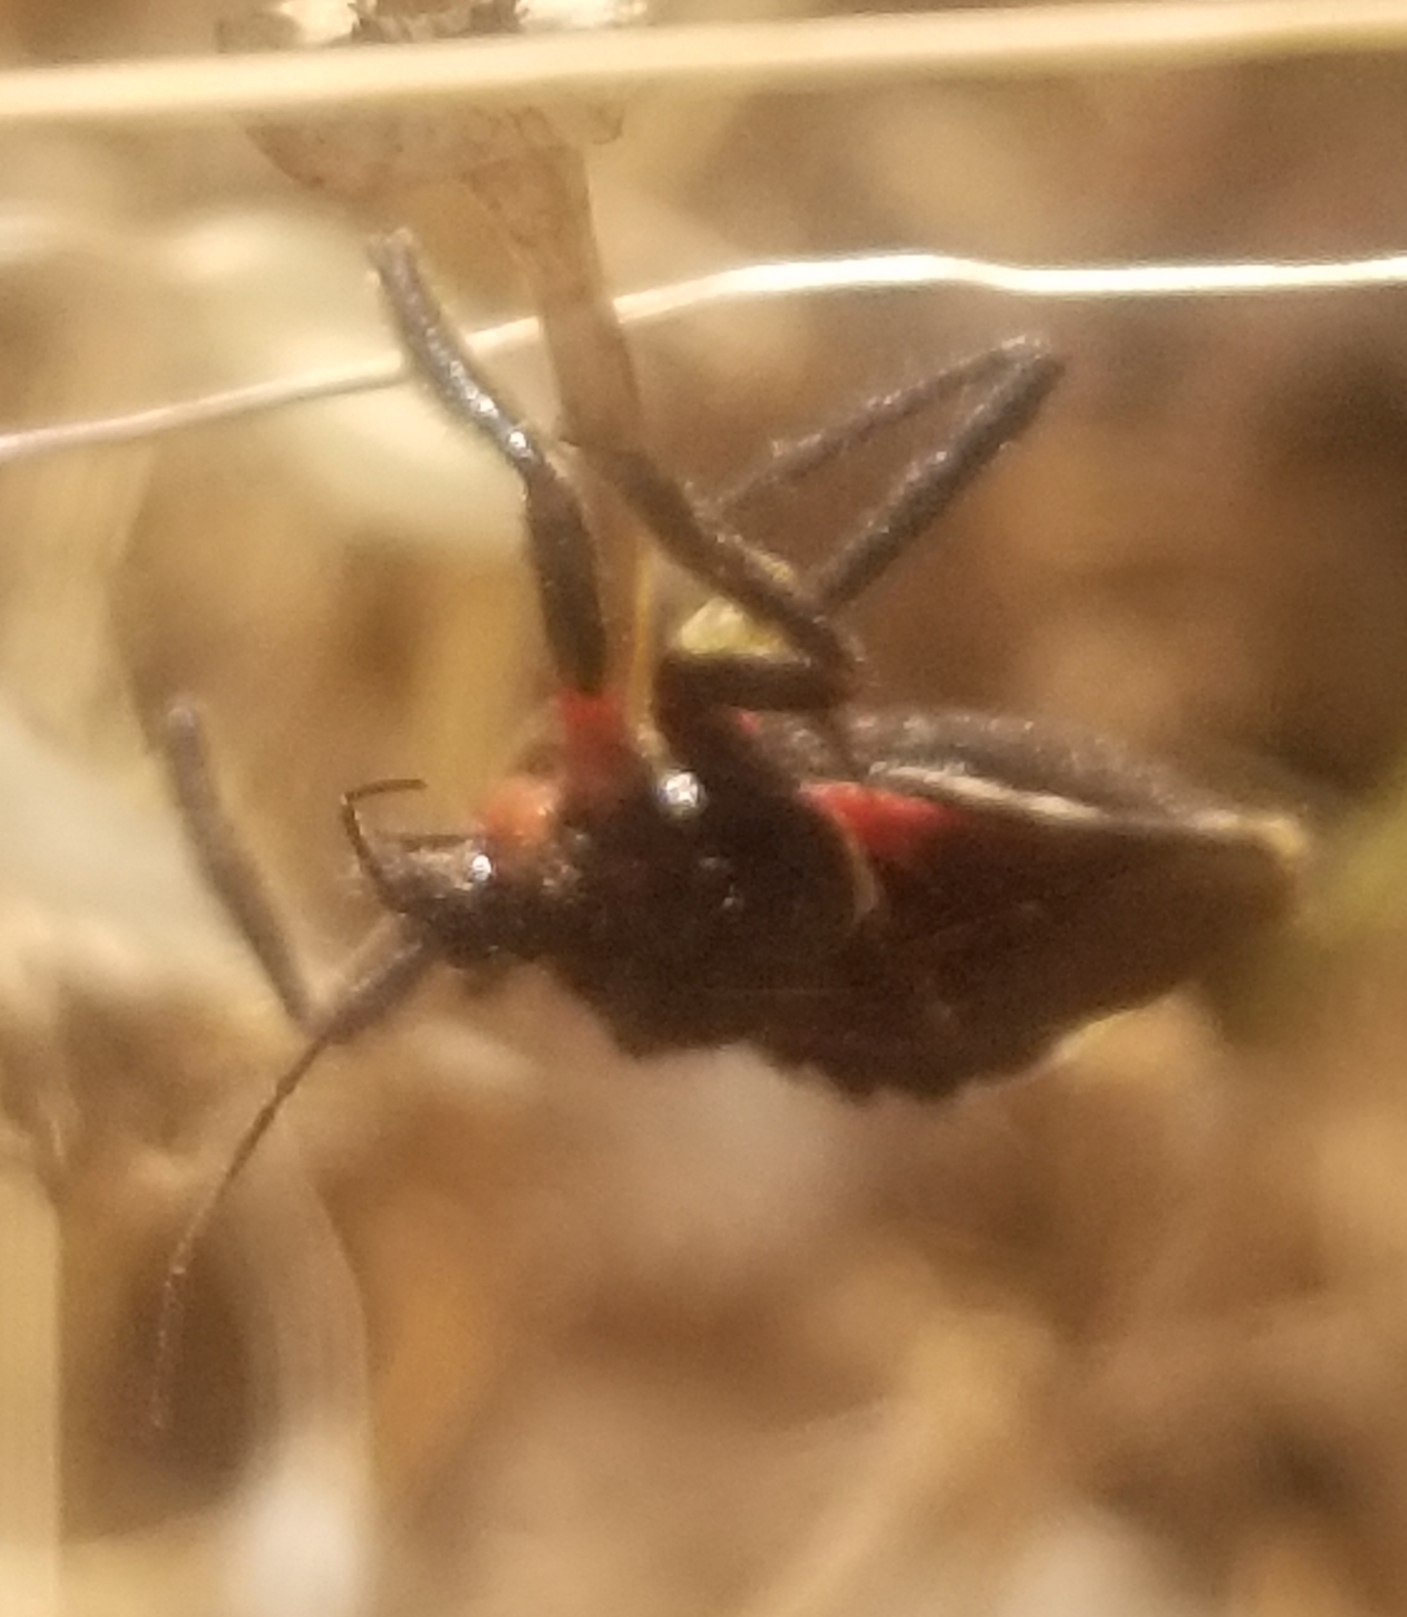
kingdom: Animalia
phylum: Arthropoda
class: Insecta
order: Hemiptera
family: Reduviidae
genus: Apiomerus
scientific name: Apiomerus californicus
